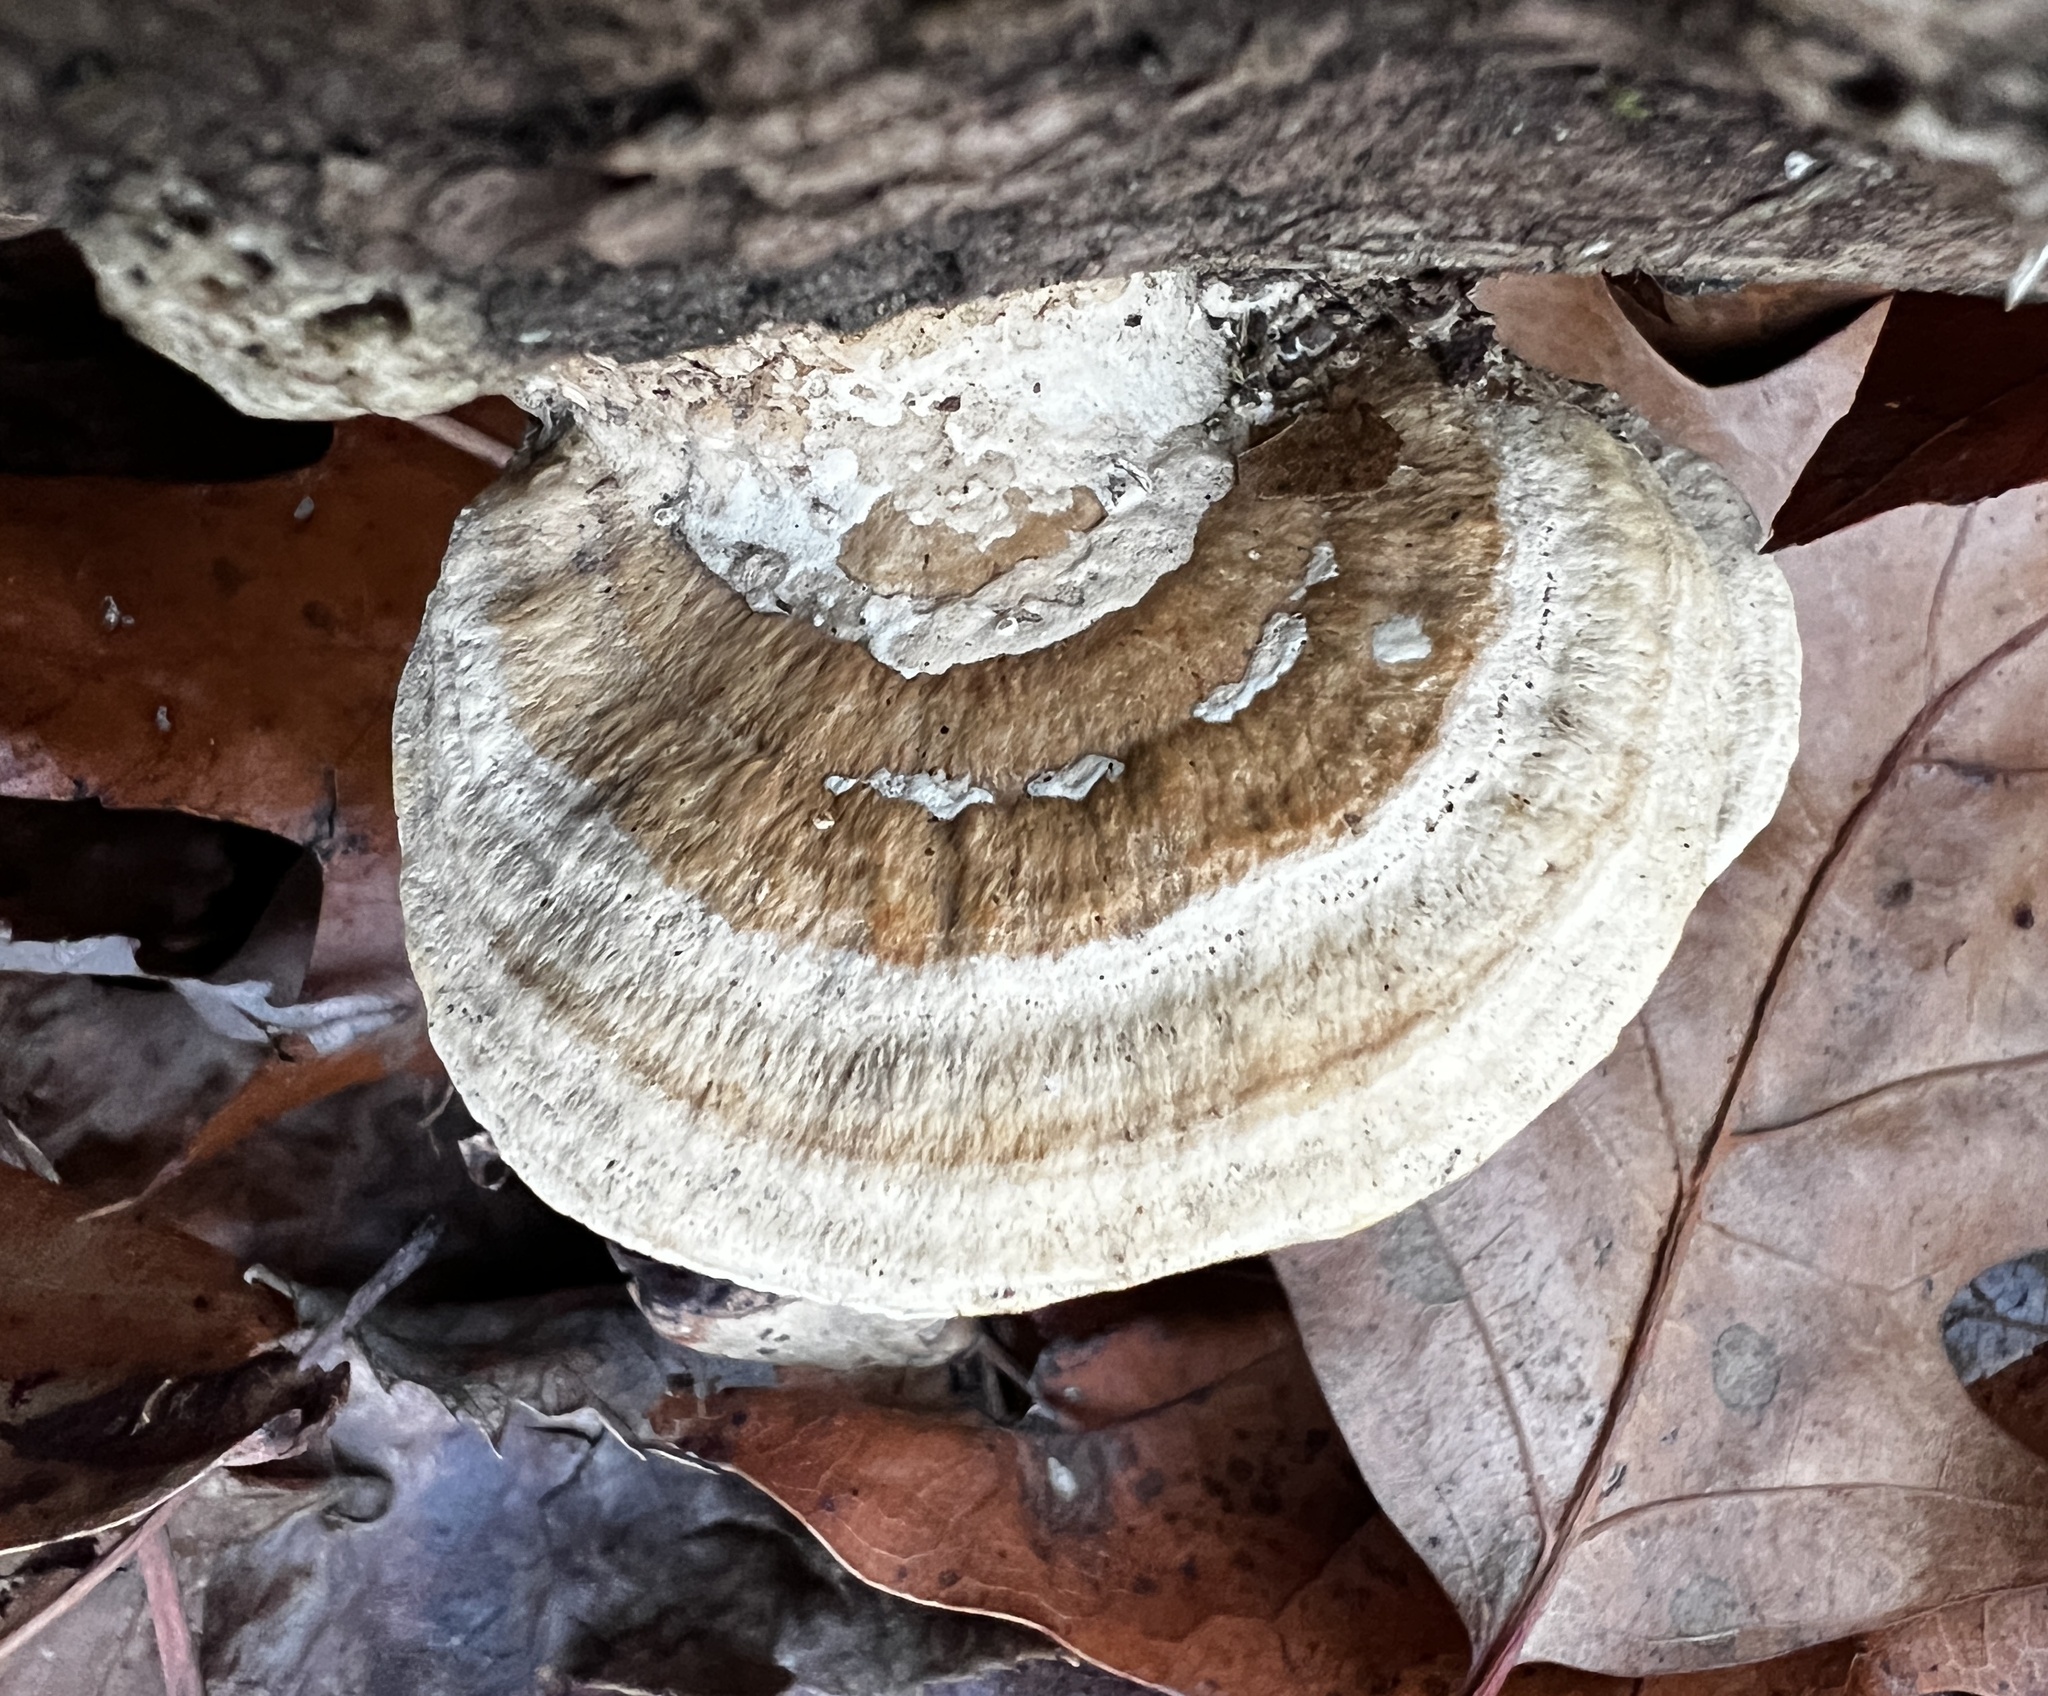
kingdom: Fungi
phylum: Basidiomycota
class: Agaricomycetes
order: Polyporales
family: Fomitopsidaceae
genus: Fomitopsis
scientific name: Fomitopsis
